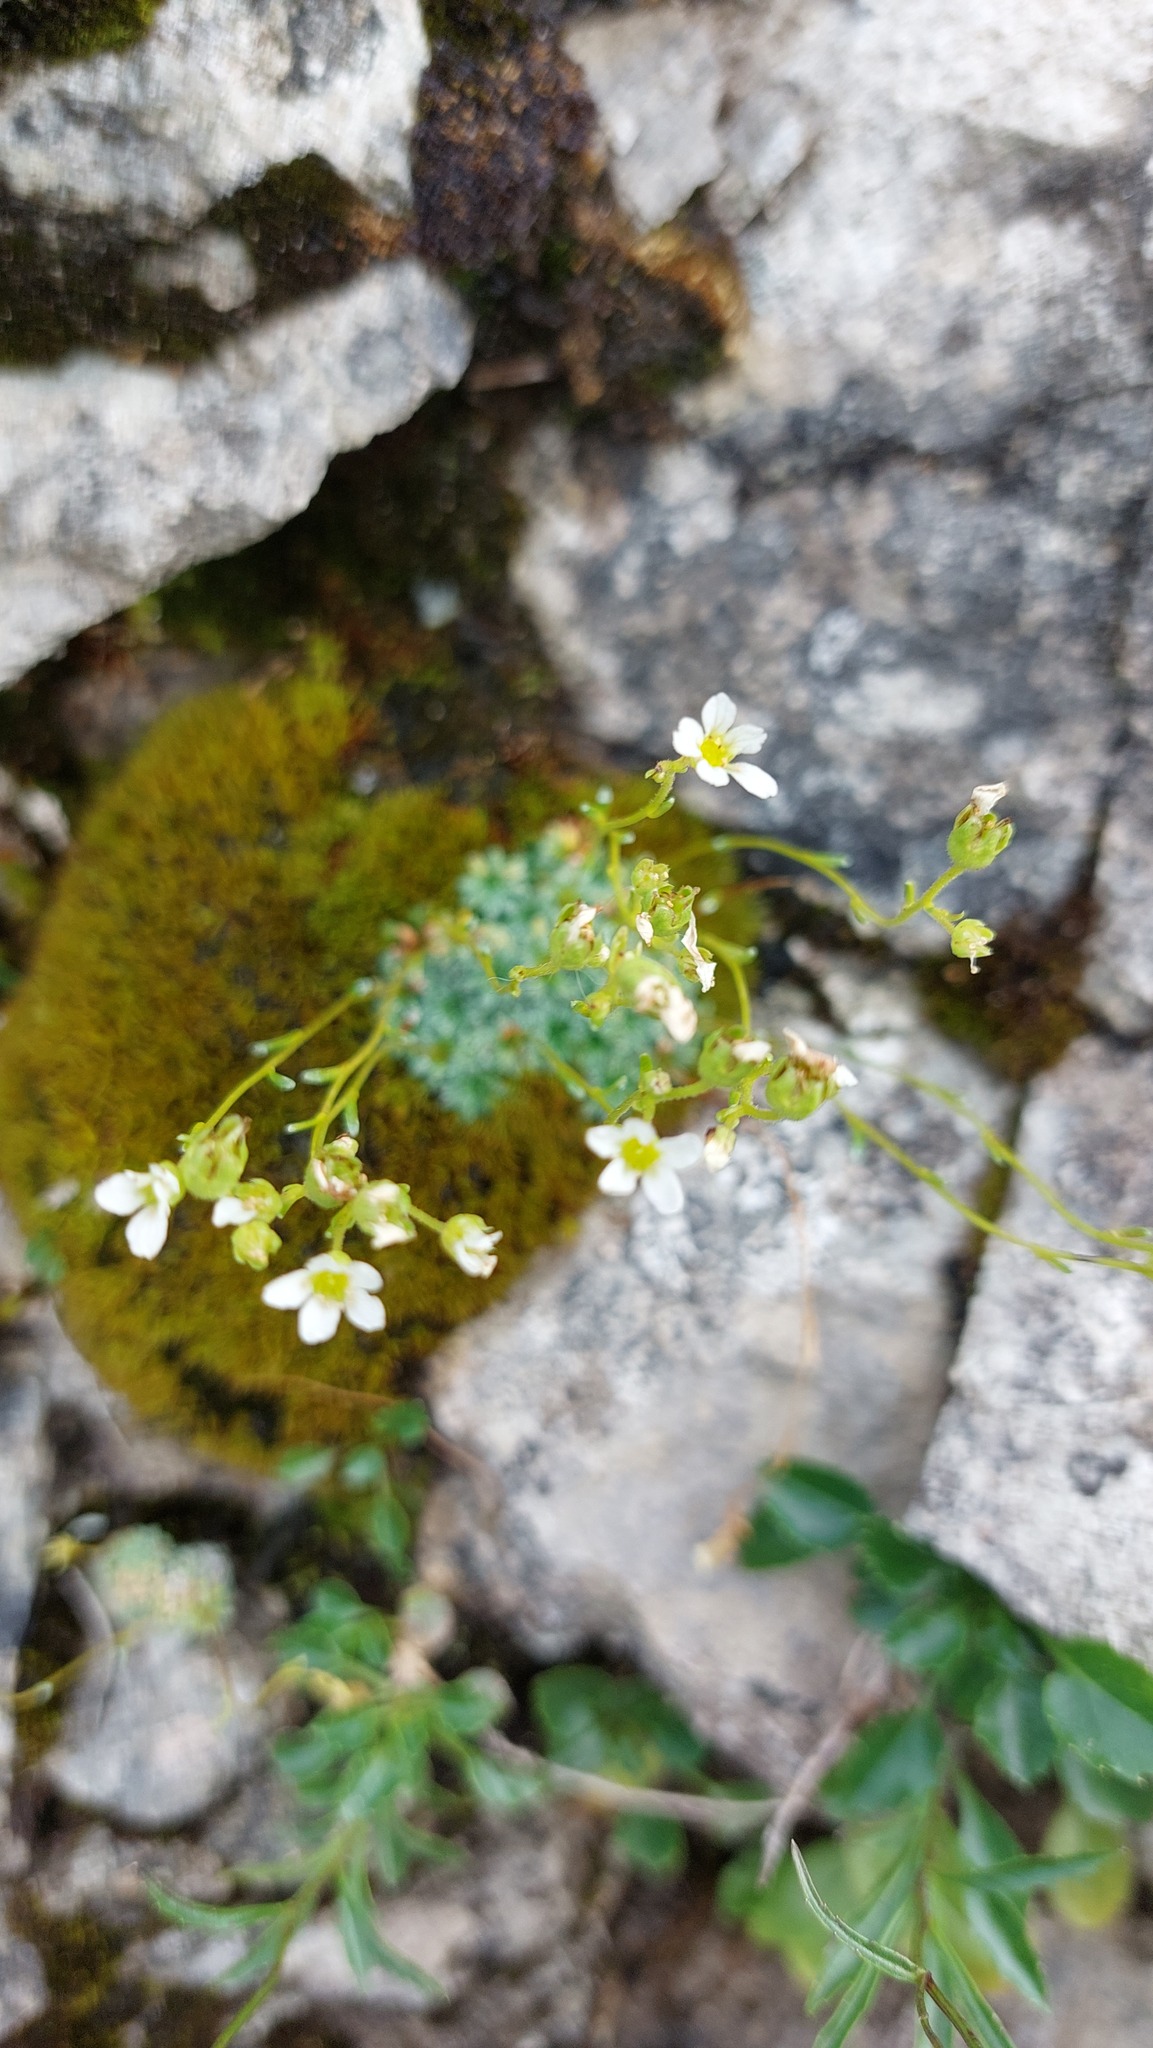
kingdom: Plantae
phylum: Tracheophyta
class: Magnoliopsida
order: Saxifragales
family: Saxifragaceae
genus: Saxifraga
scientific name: Saxifraga caesia
